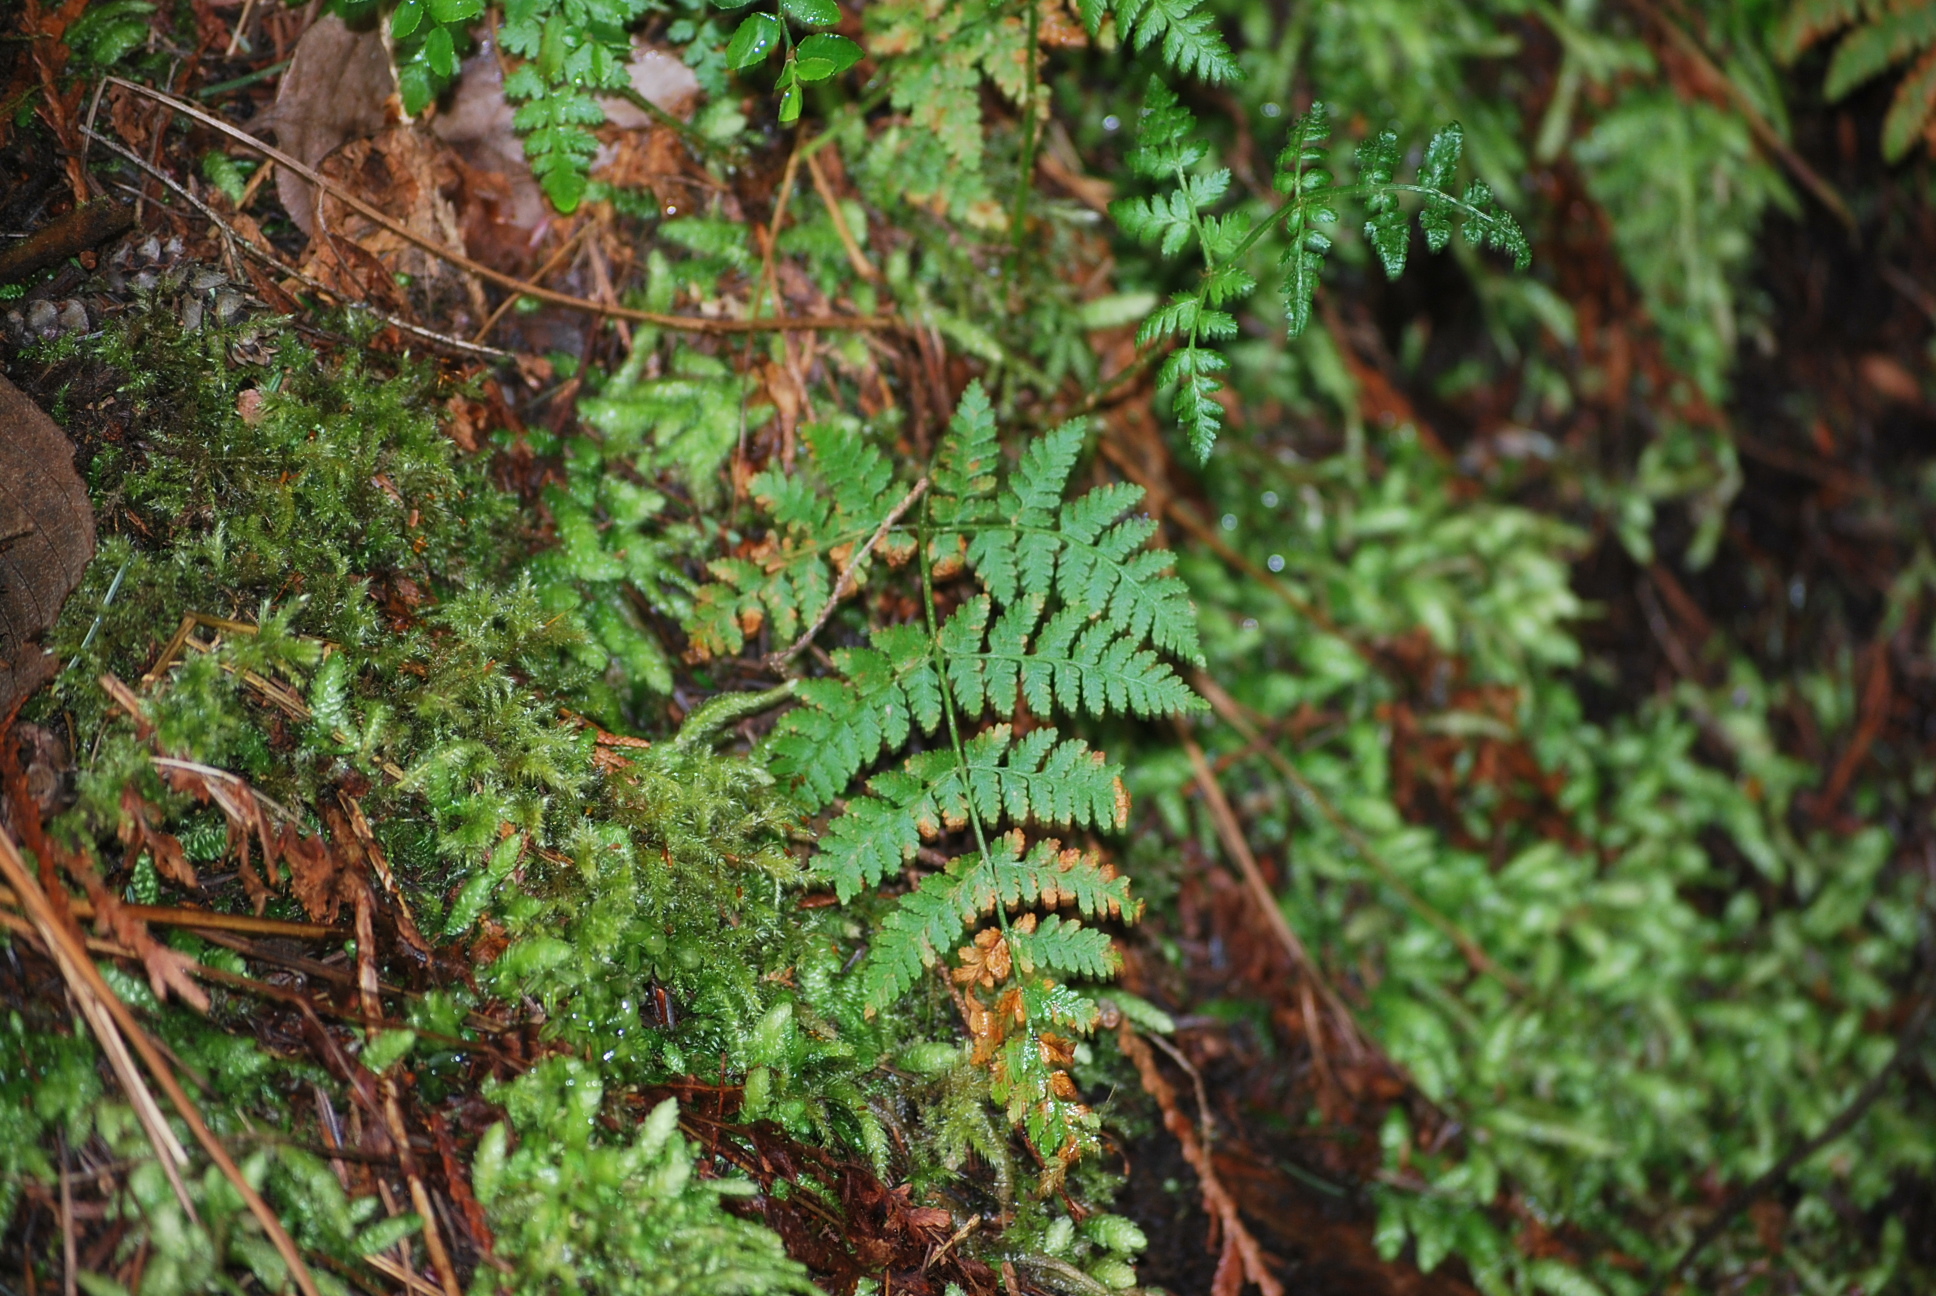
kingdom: Plantae
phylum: Tracheophyta
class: Polypodiopsida
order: Polypodiales
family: Dryopteridaceae
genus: Dryopteris
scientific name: Dryopteris expansa
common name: Northern buckler fern
